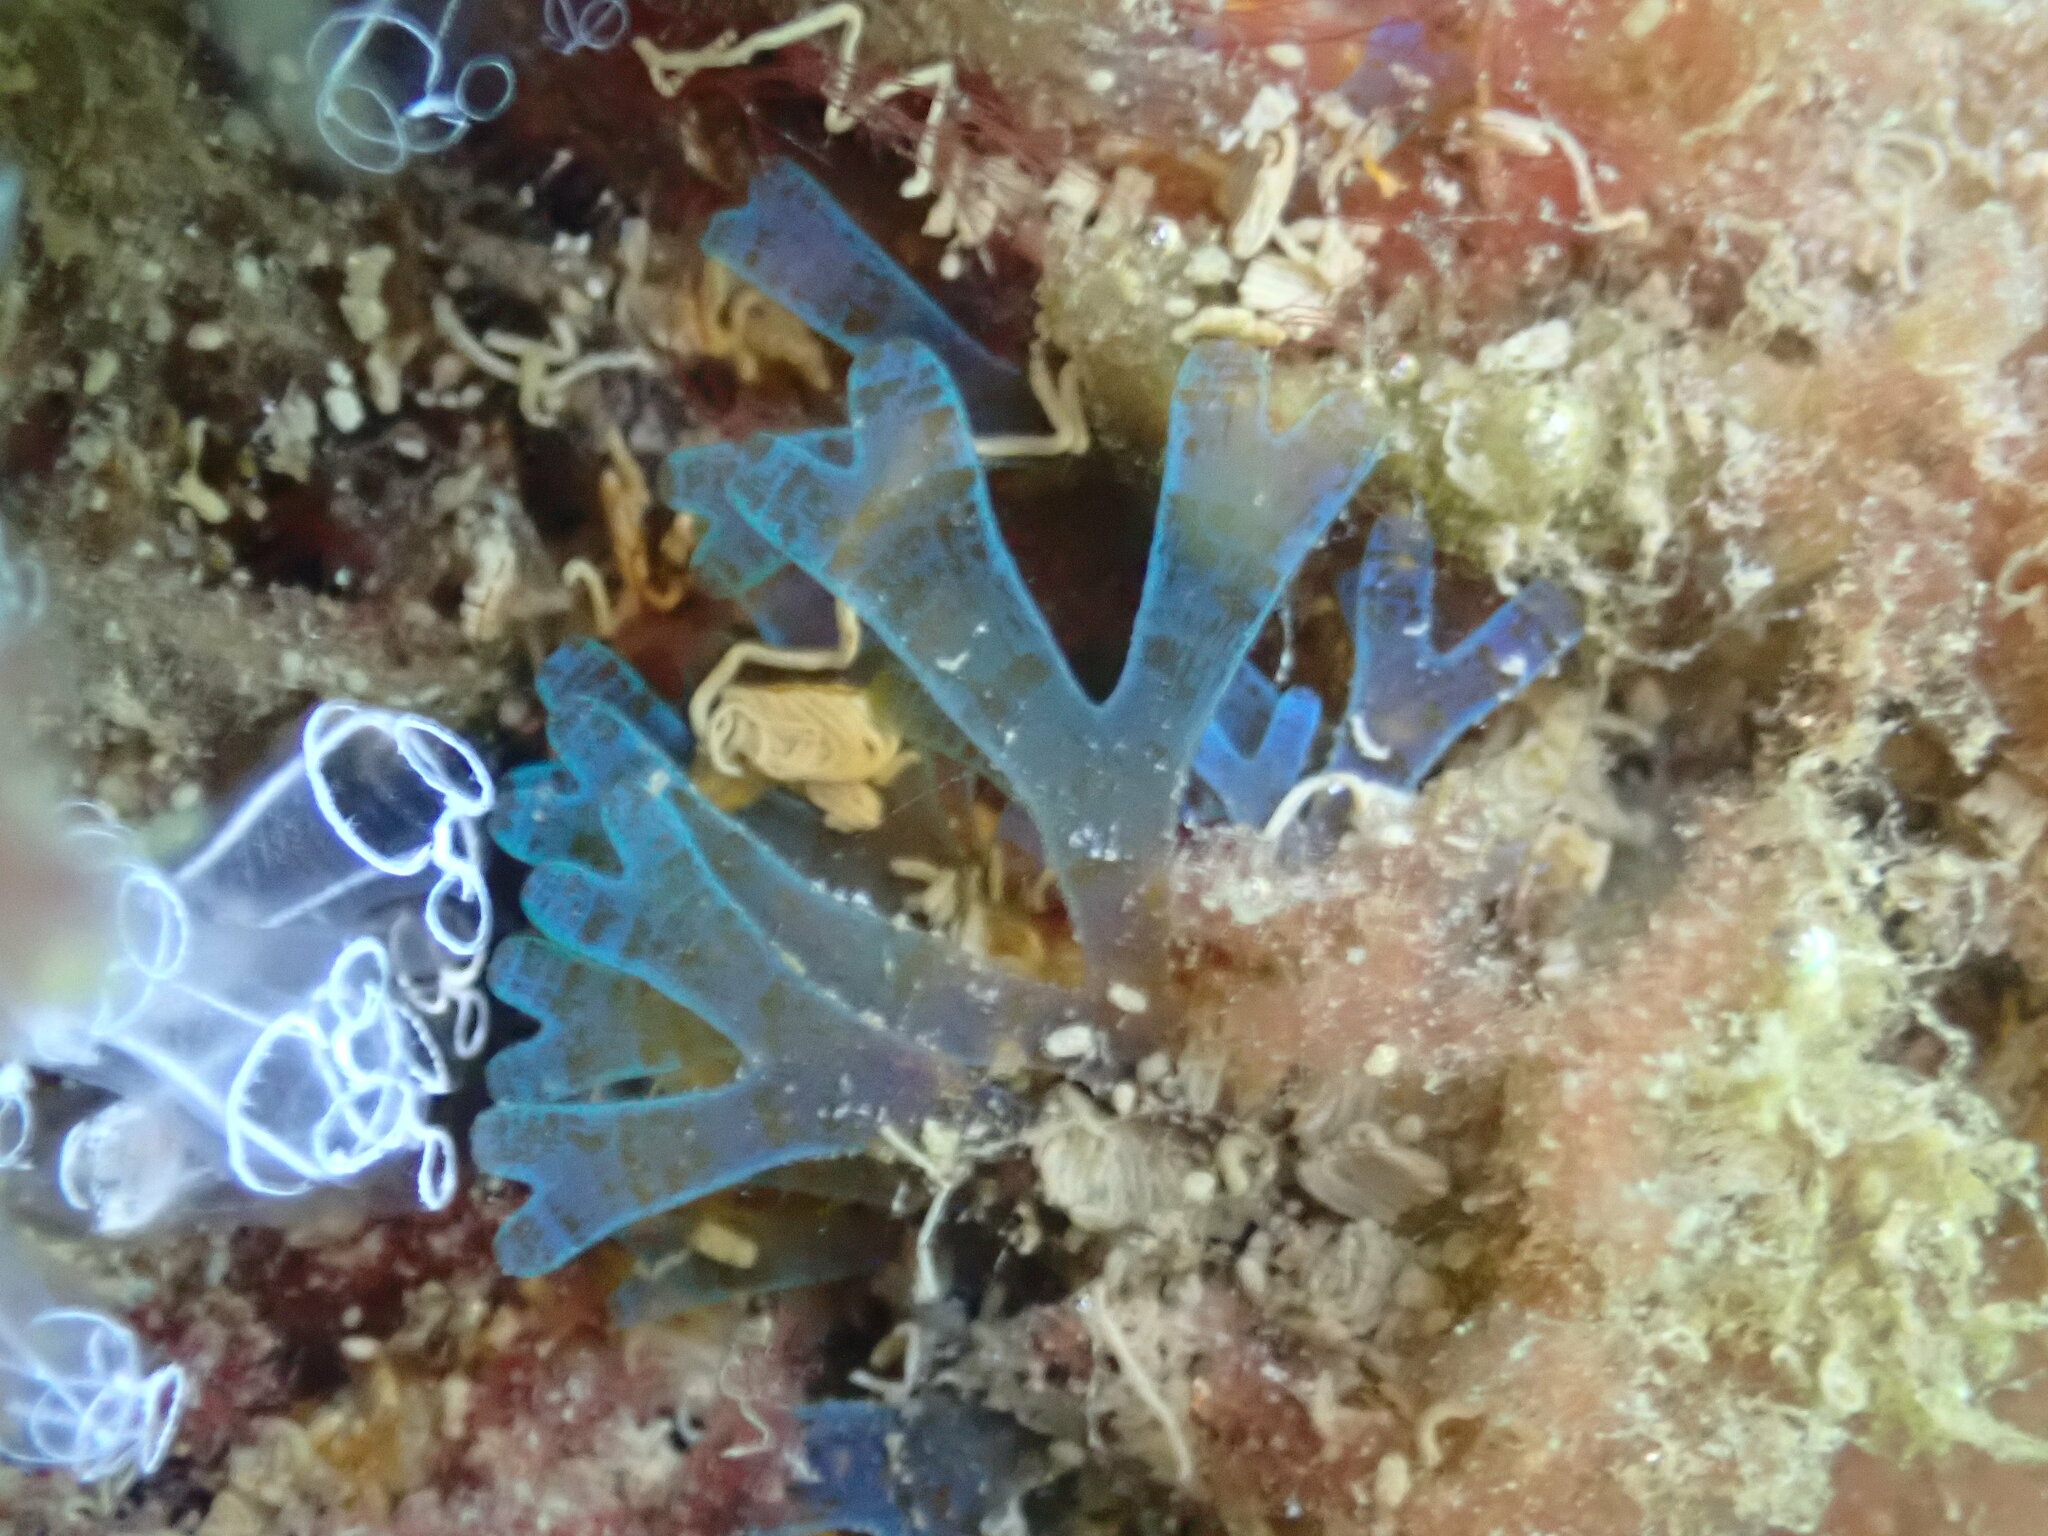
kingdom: Chromista
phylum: Ochrophyta
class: Phaeophyceae
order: Dictyotales
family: Dictyotaceae
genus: Dictyota
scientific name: Dictyota dichotoma
